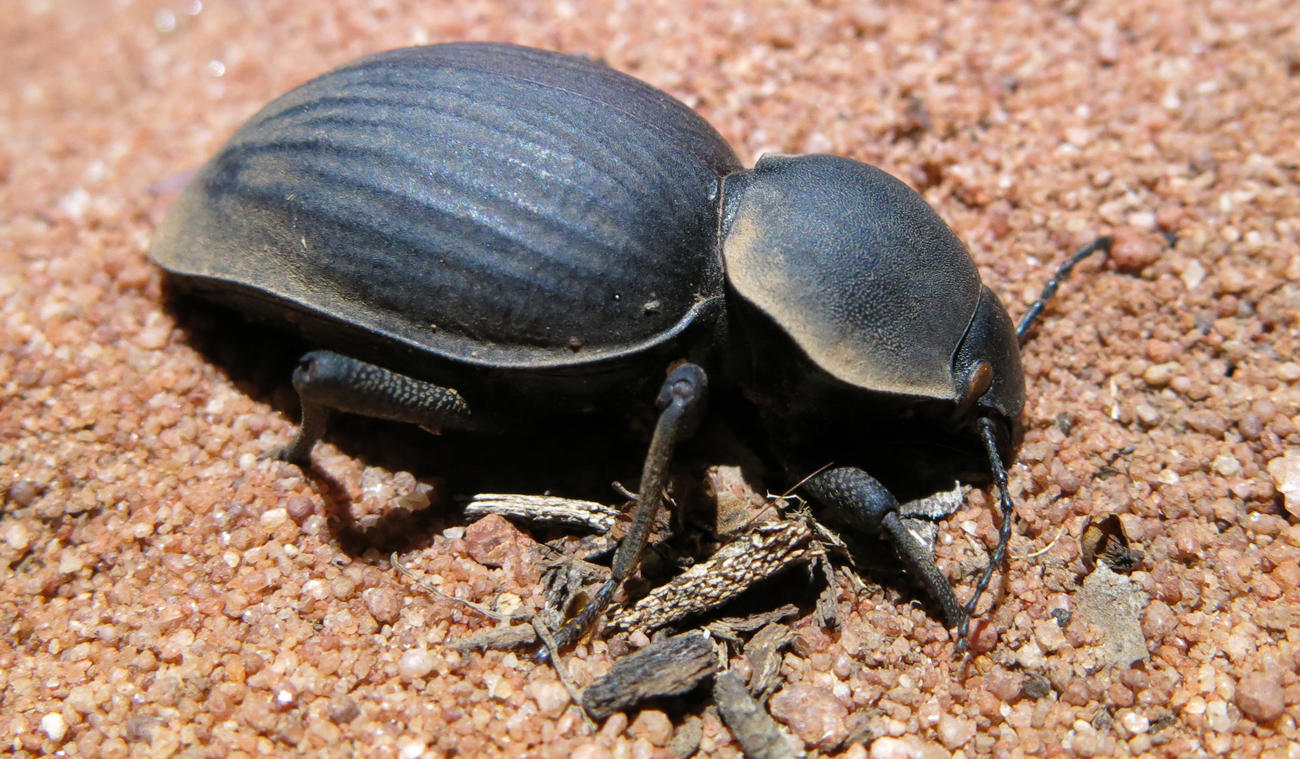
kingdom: Animalia
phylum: Arthropoda
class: Insecta
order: Coleoptera
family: Tenebrionidae
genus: Chiliarchum
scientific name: Chiliarchum
